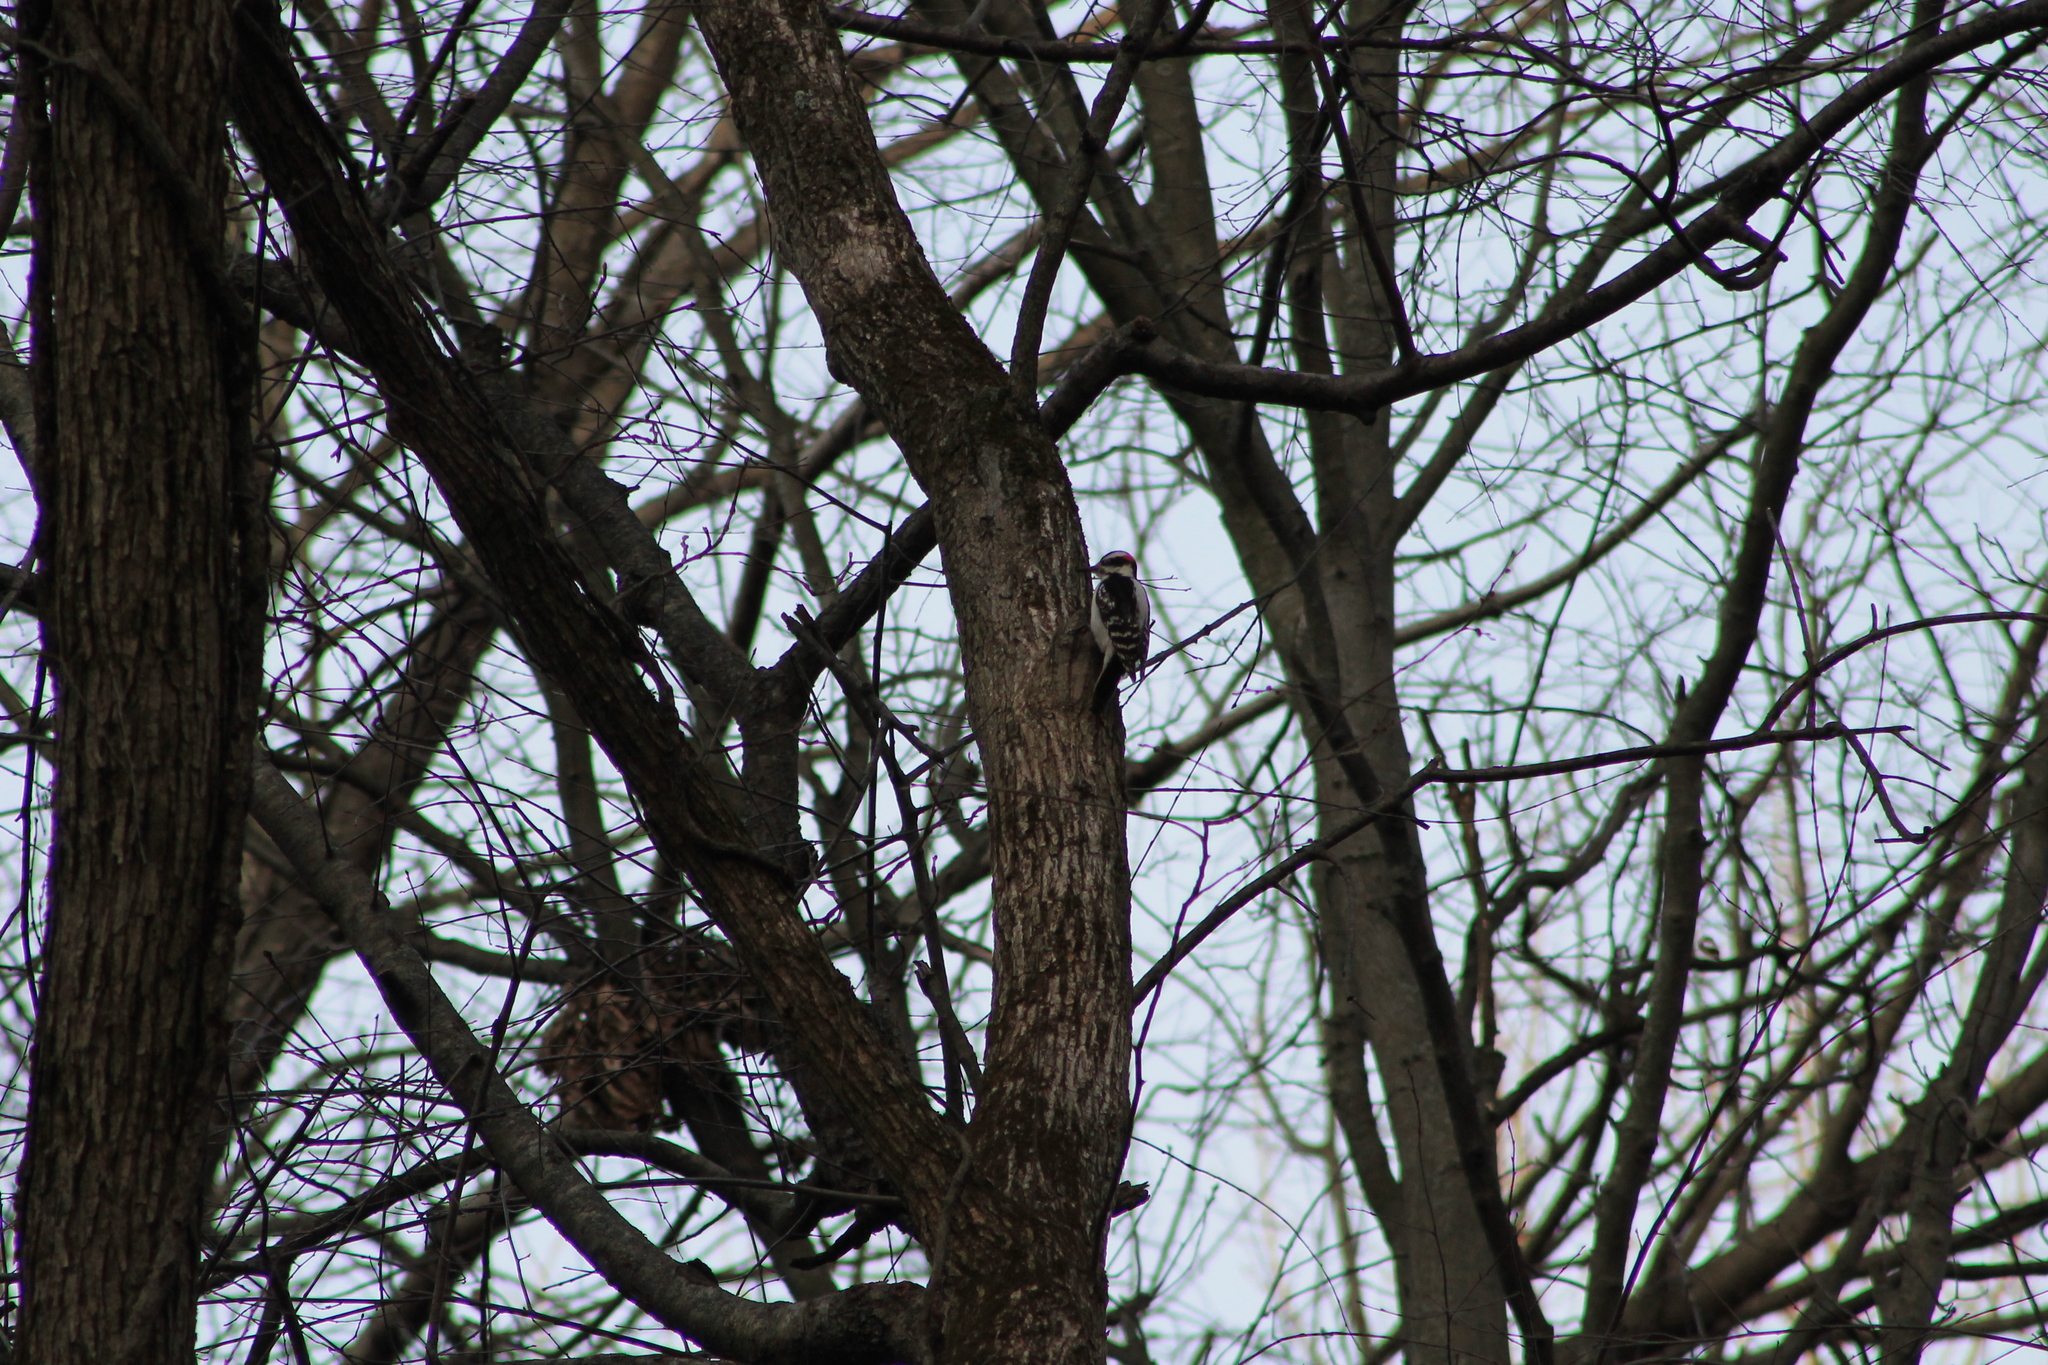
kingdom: Animalia
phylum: Chordata
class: Aves
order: Piciformes
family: Picidae
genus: Leuconotopicus
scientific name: Leuconotopicus villosus
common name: Hairy woodpecker
